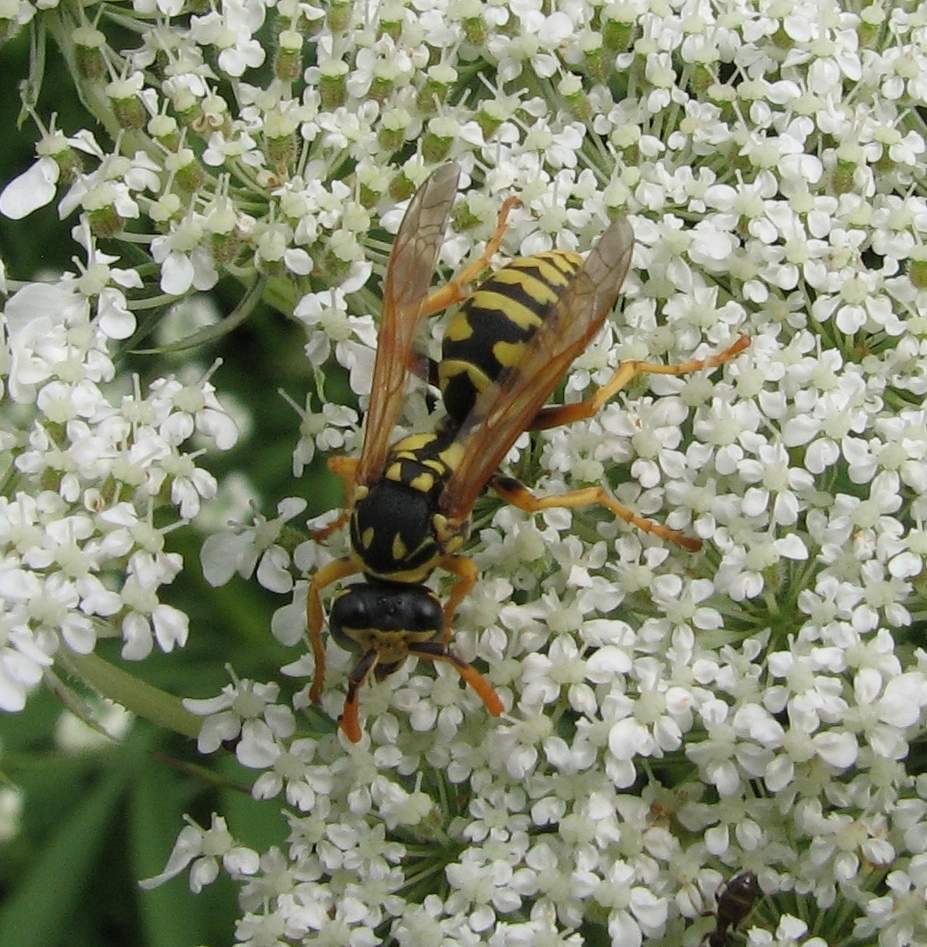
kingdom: Animalia
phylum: Arthropoda
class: Insecta
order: Hymenoptera
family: Eumenidae
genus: Polistes
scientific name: Polistes dominula
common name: Paper wasp
